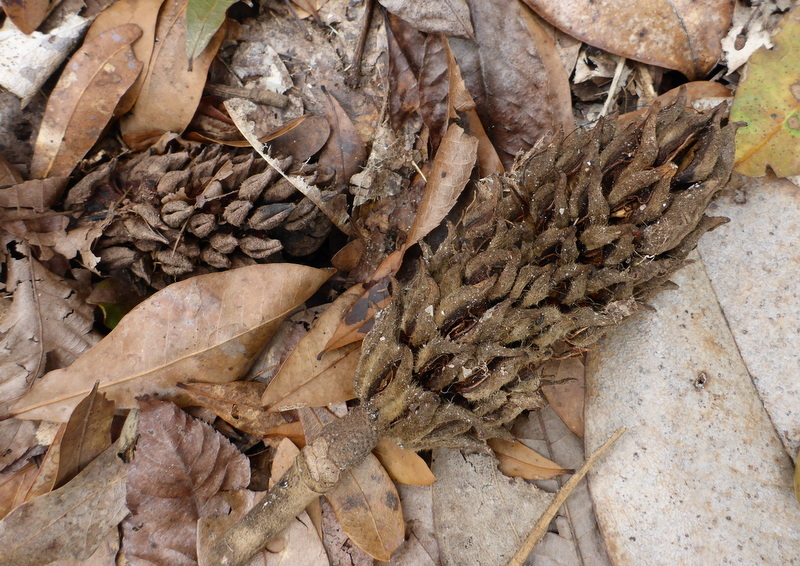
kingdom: Plantae
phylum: Tracheophyta
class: Magnoliopsida
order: Magnoliales
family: Magnoliaceae
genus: Magnolia
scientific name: Magnolia grandiflora
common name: Southern magnolia
